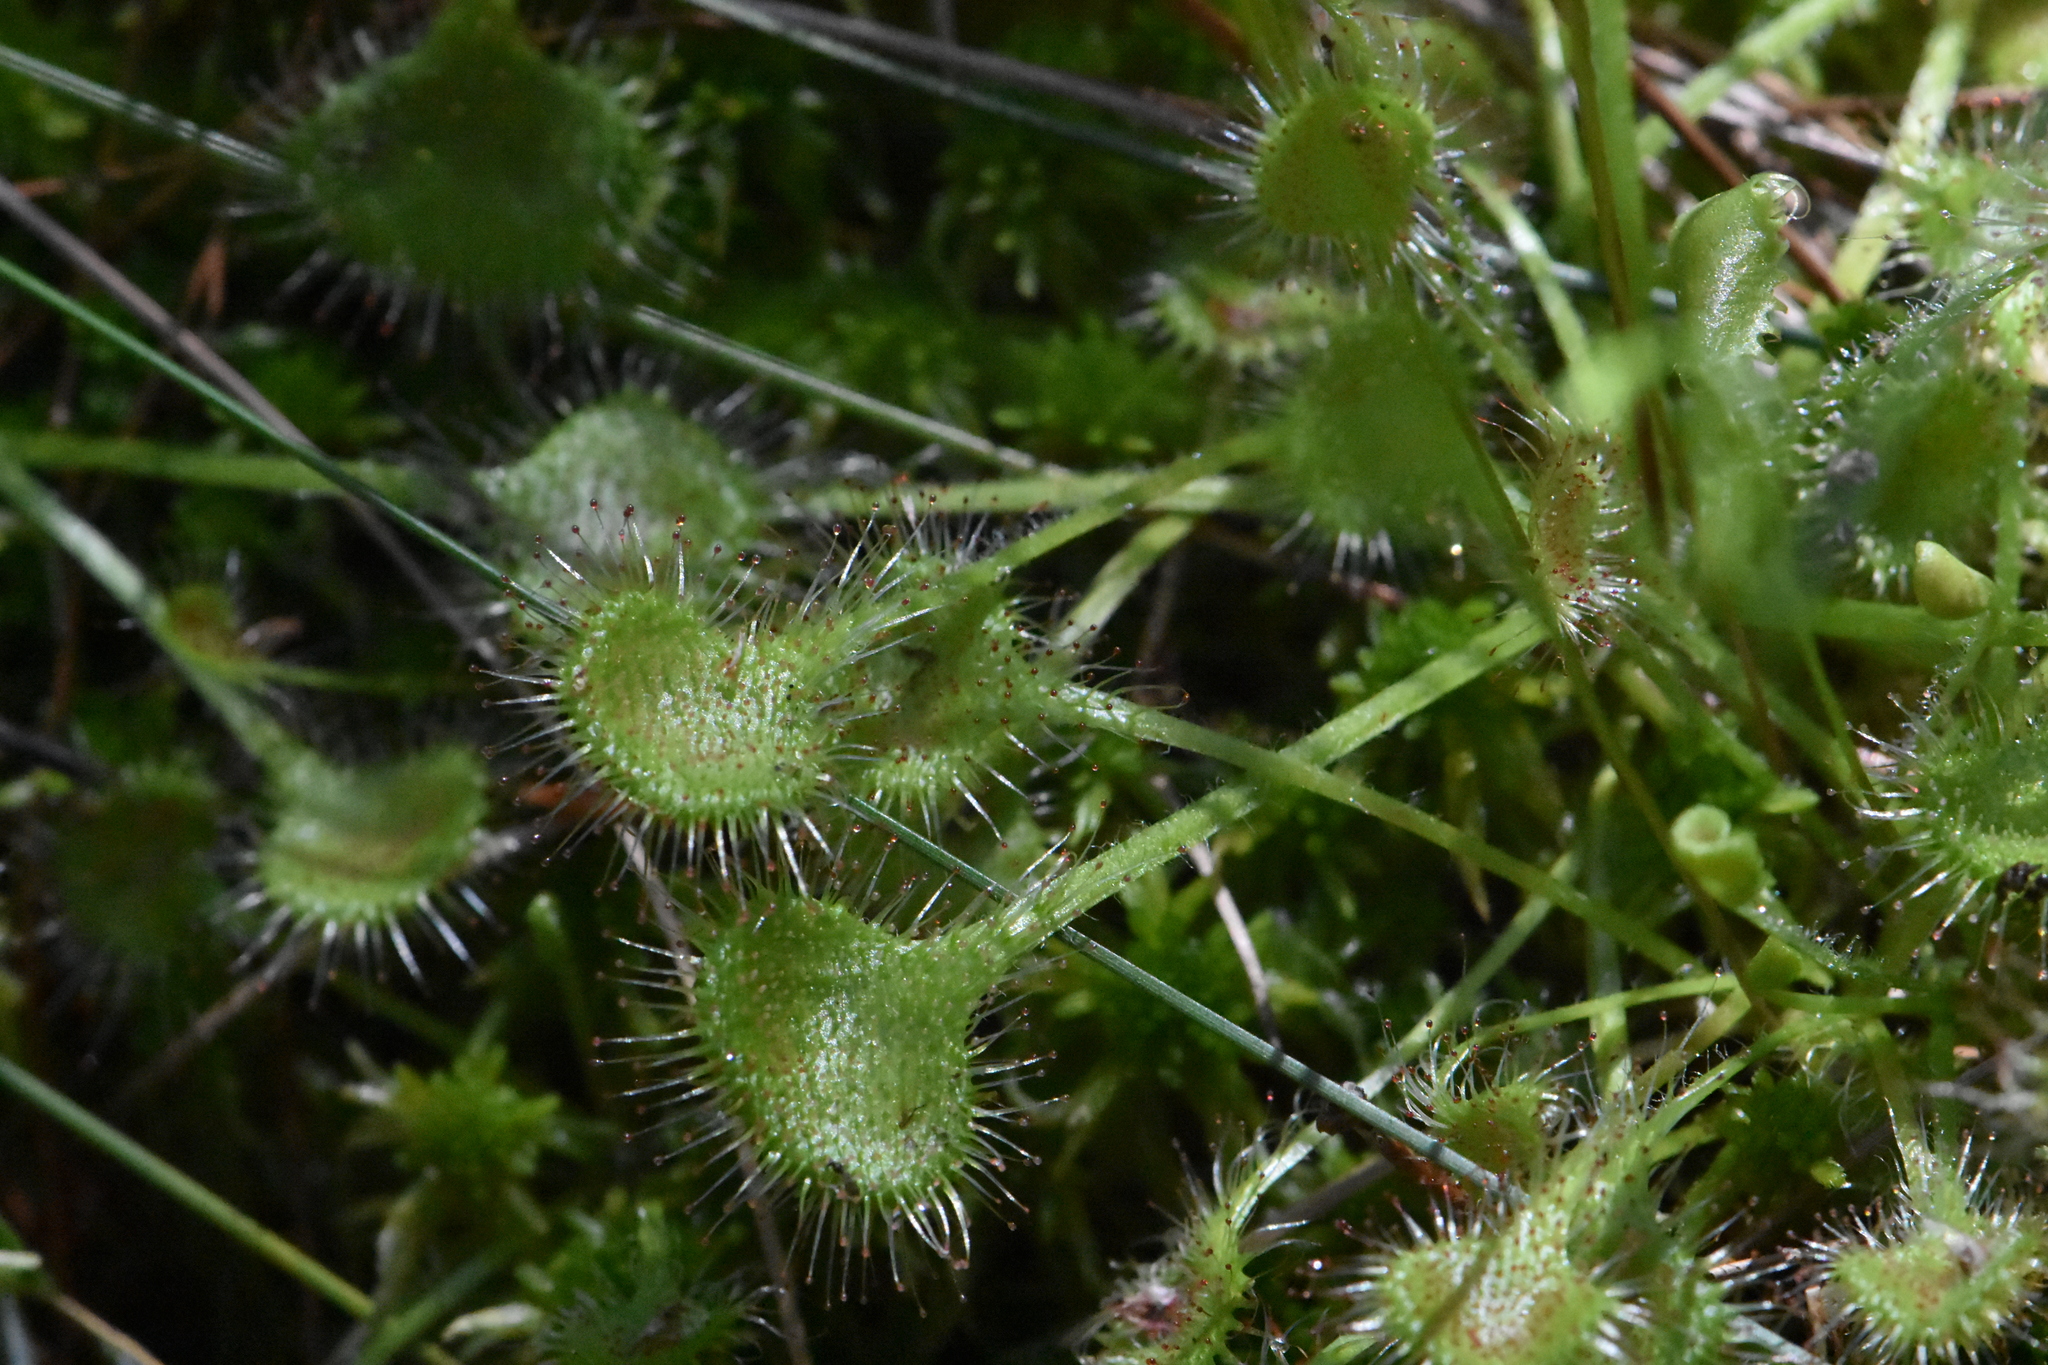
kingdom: Plantae
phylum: Tracheophyta
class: Magnoliopsida
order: Caryophyllales
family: Droseraceae
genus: Drosera
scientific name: Drosera rotundifolia
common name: Round-leaved sundew
